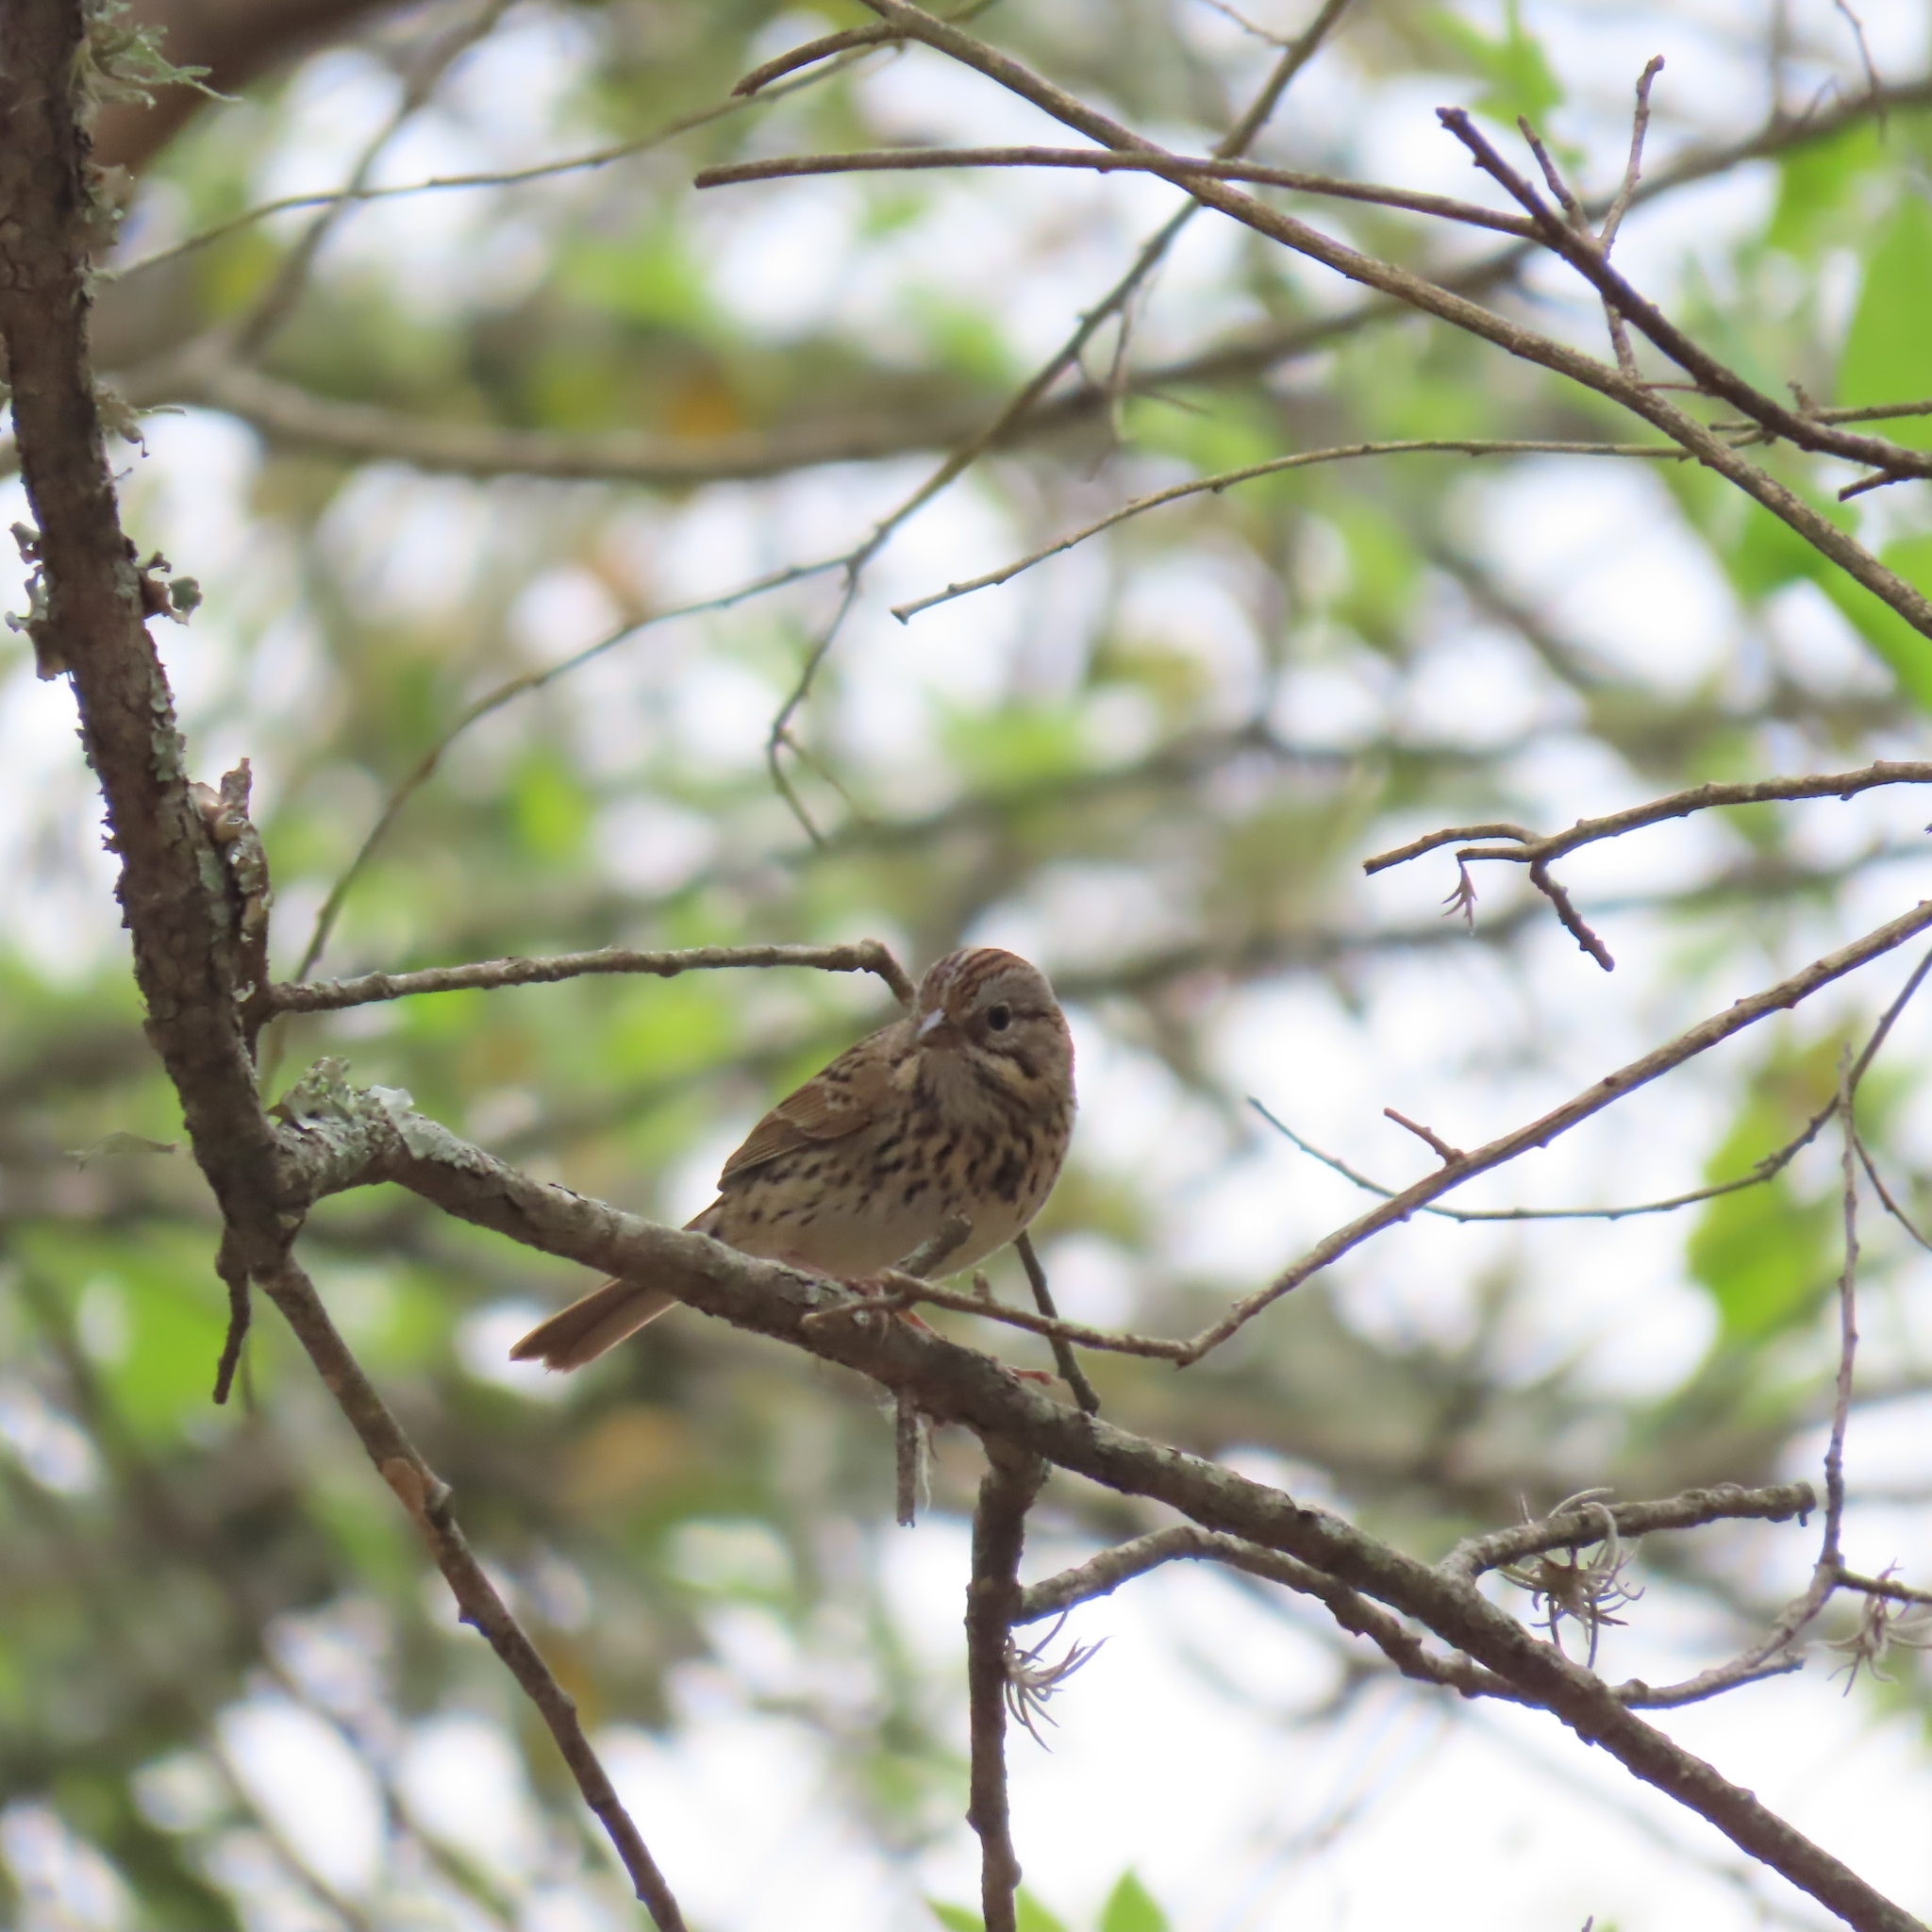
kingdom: Animalia
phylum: Chordata
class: Aves
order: Passeriformes
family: Passerellidae
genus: Melospiza
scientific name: Melospiza lincolnii
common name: Lincoln's sparrow
